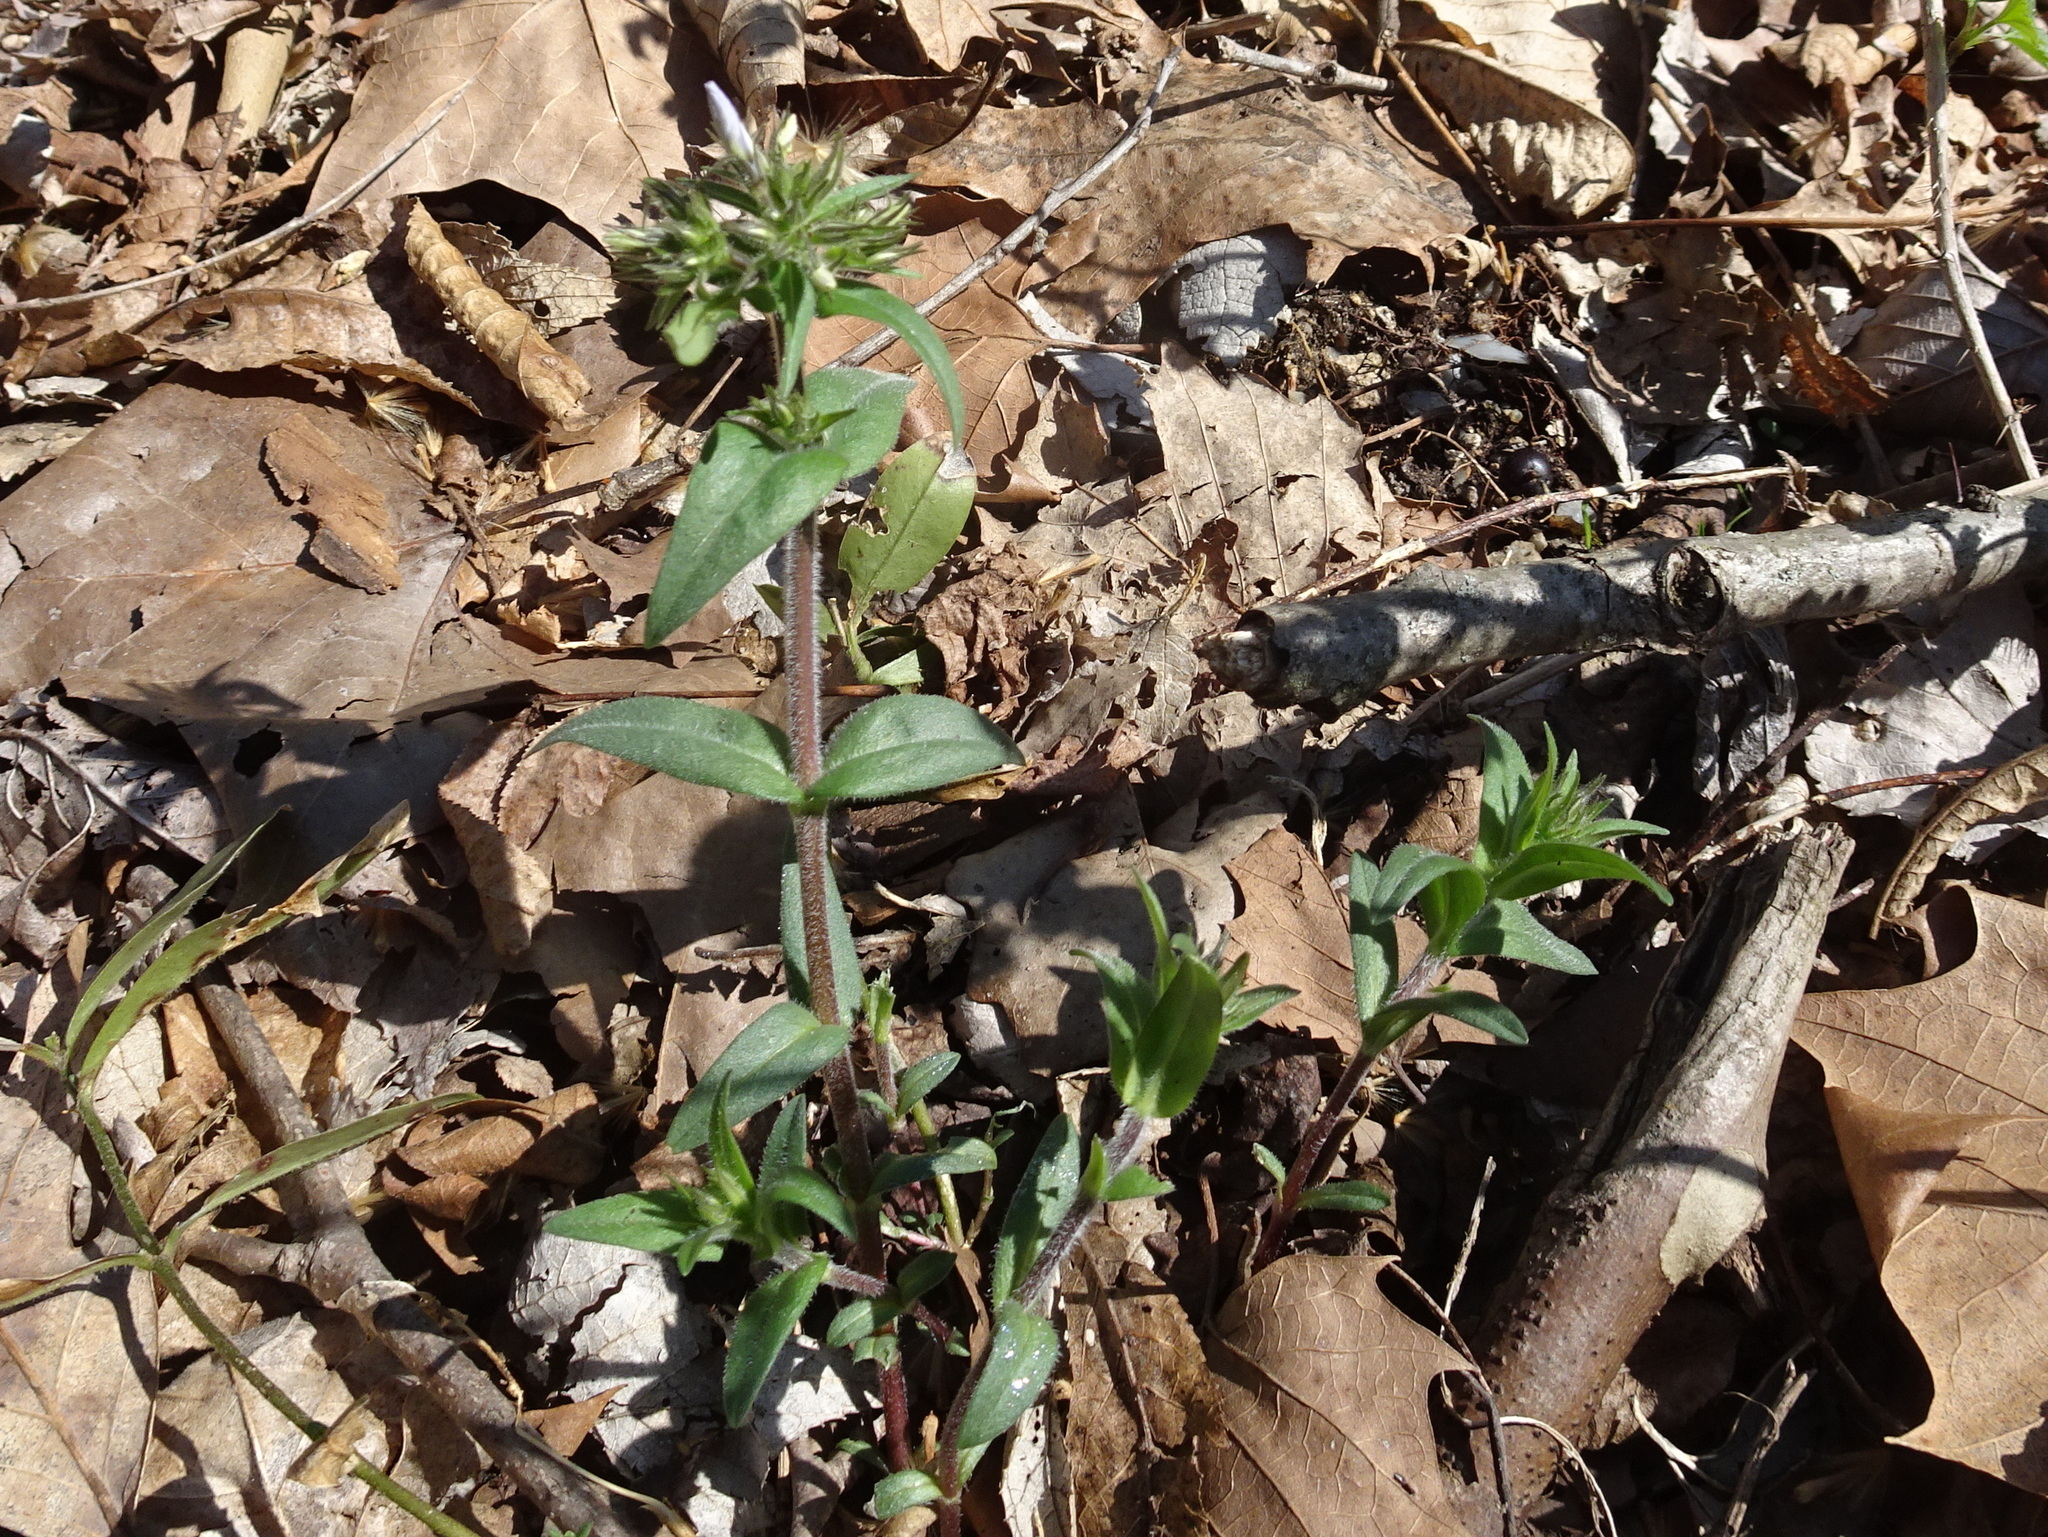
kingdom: Plantae
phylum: Tracheophyta
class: Magnoliopsida
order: Ericales
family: Polemoniaceae
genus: Phlox
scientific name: Phlox divaricata
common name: Blue phlox
